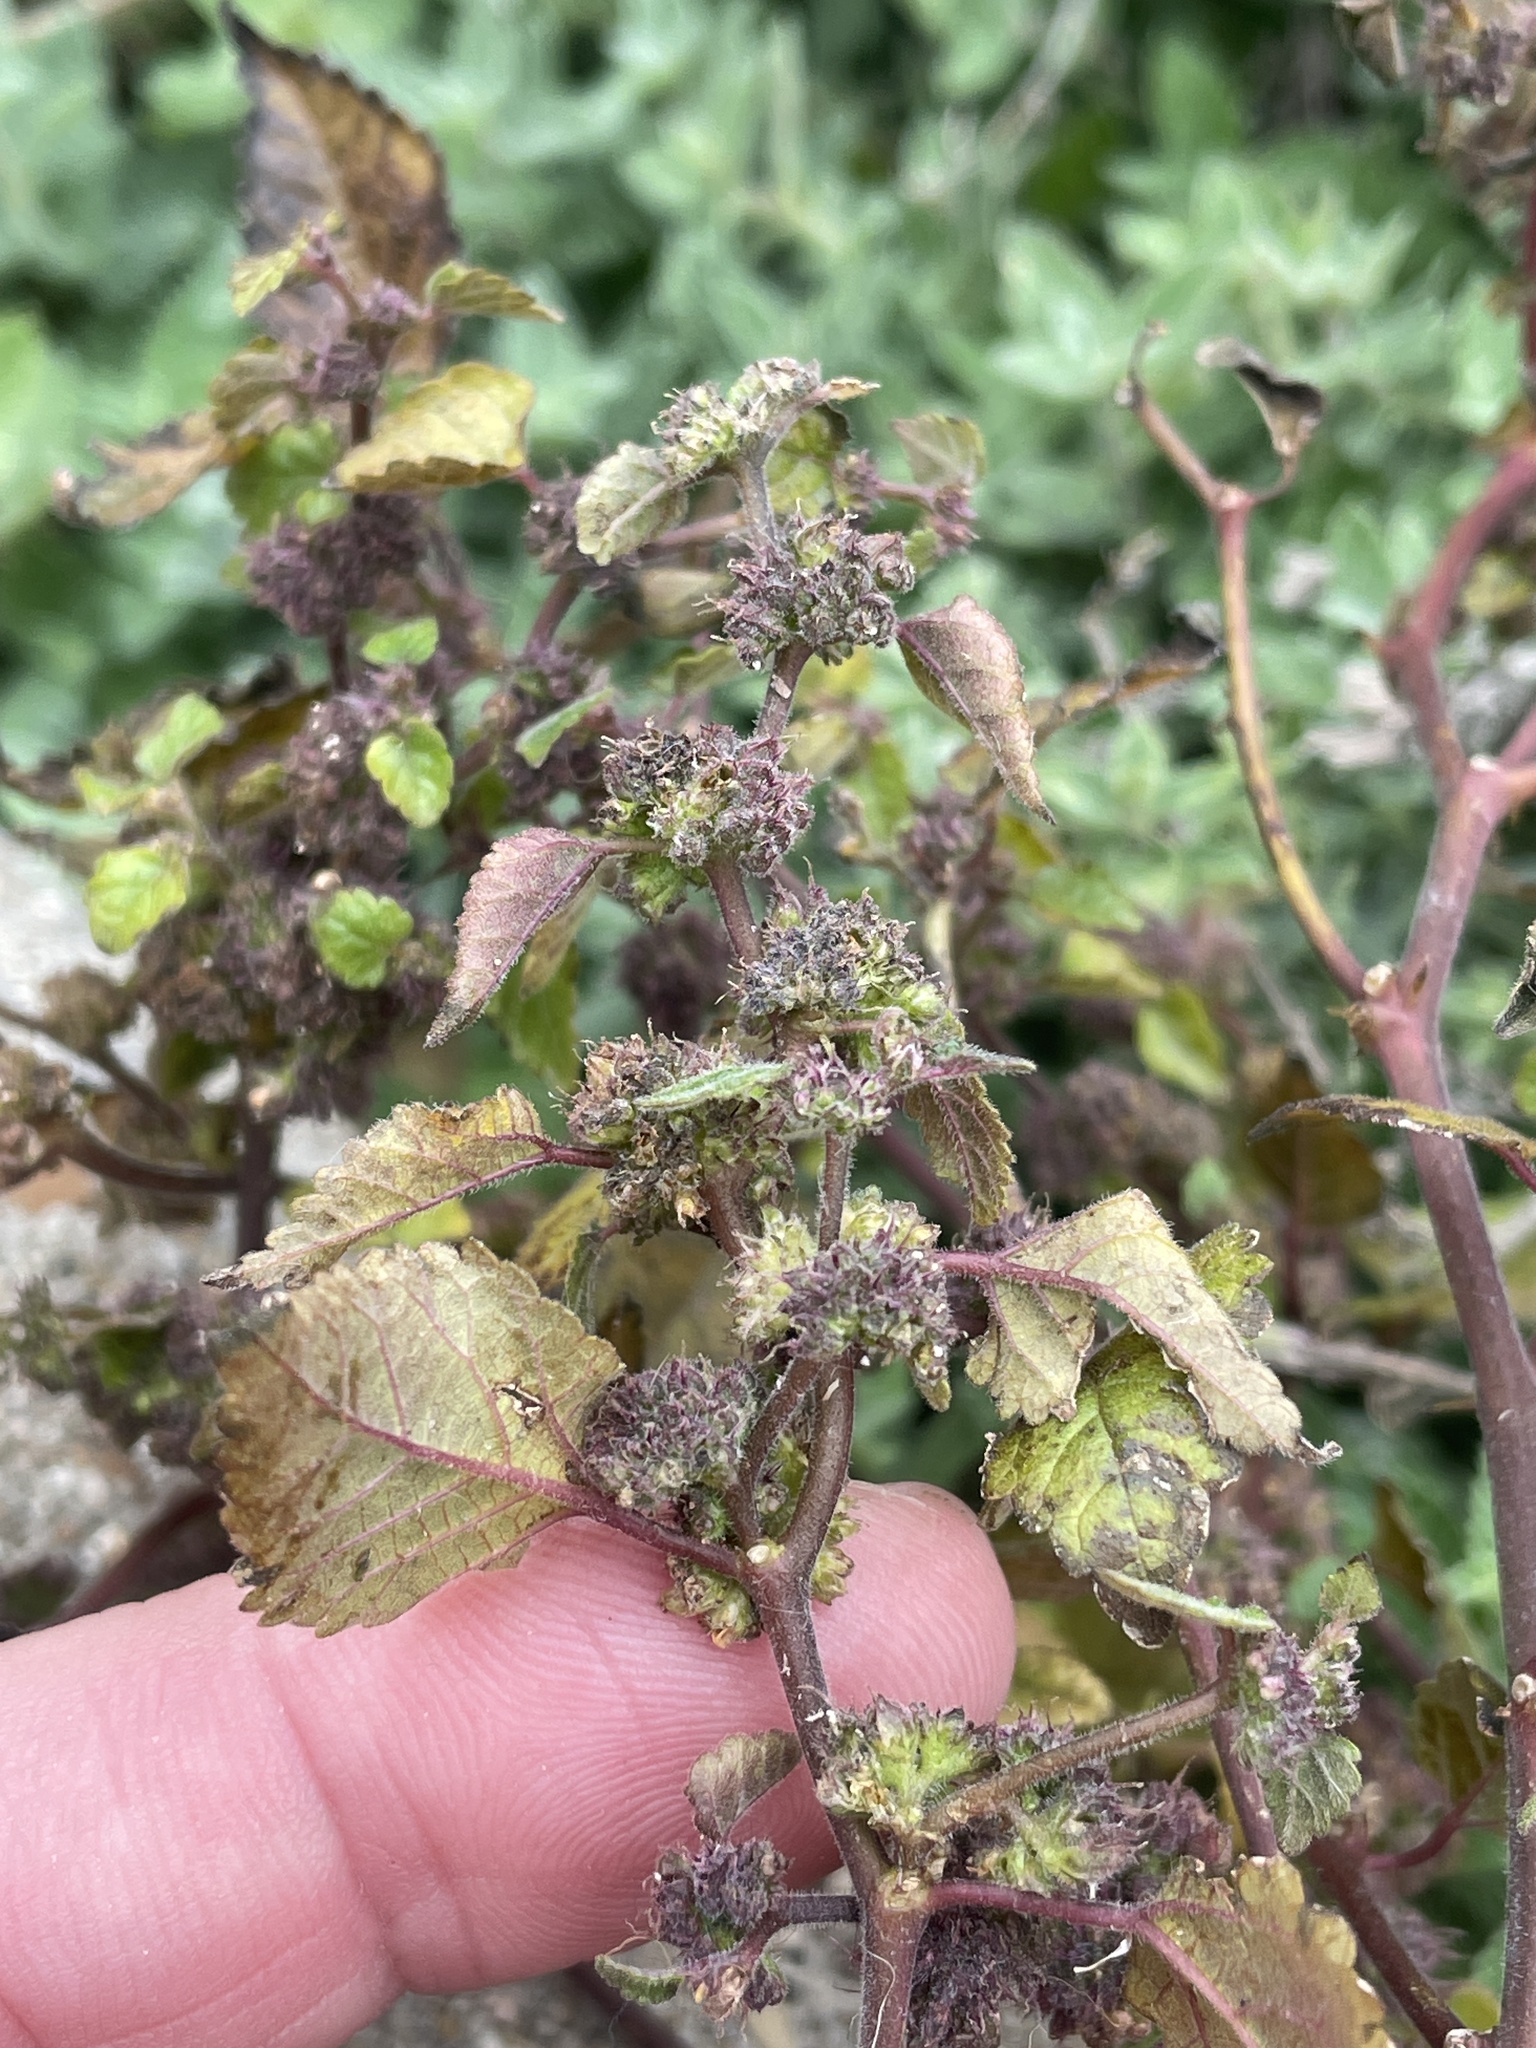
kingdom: Plantae
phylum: Tracheophyta
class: Magnoliopsida
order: Rosales
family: Moraceae
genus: Fatoua
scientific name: Fatoua villosa
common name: Hairy crabweed
